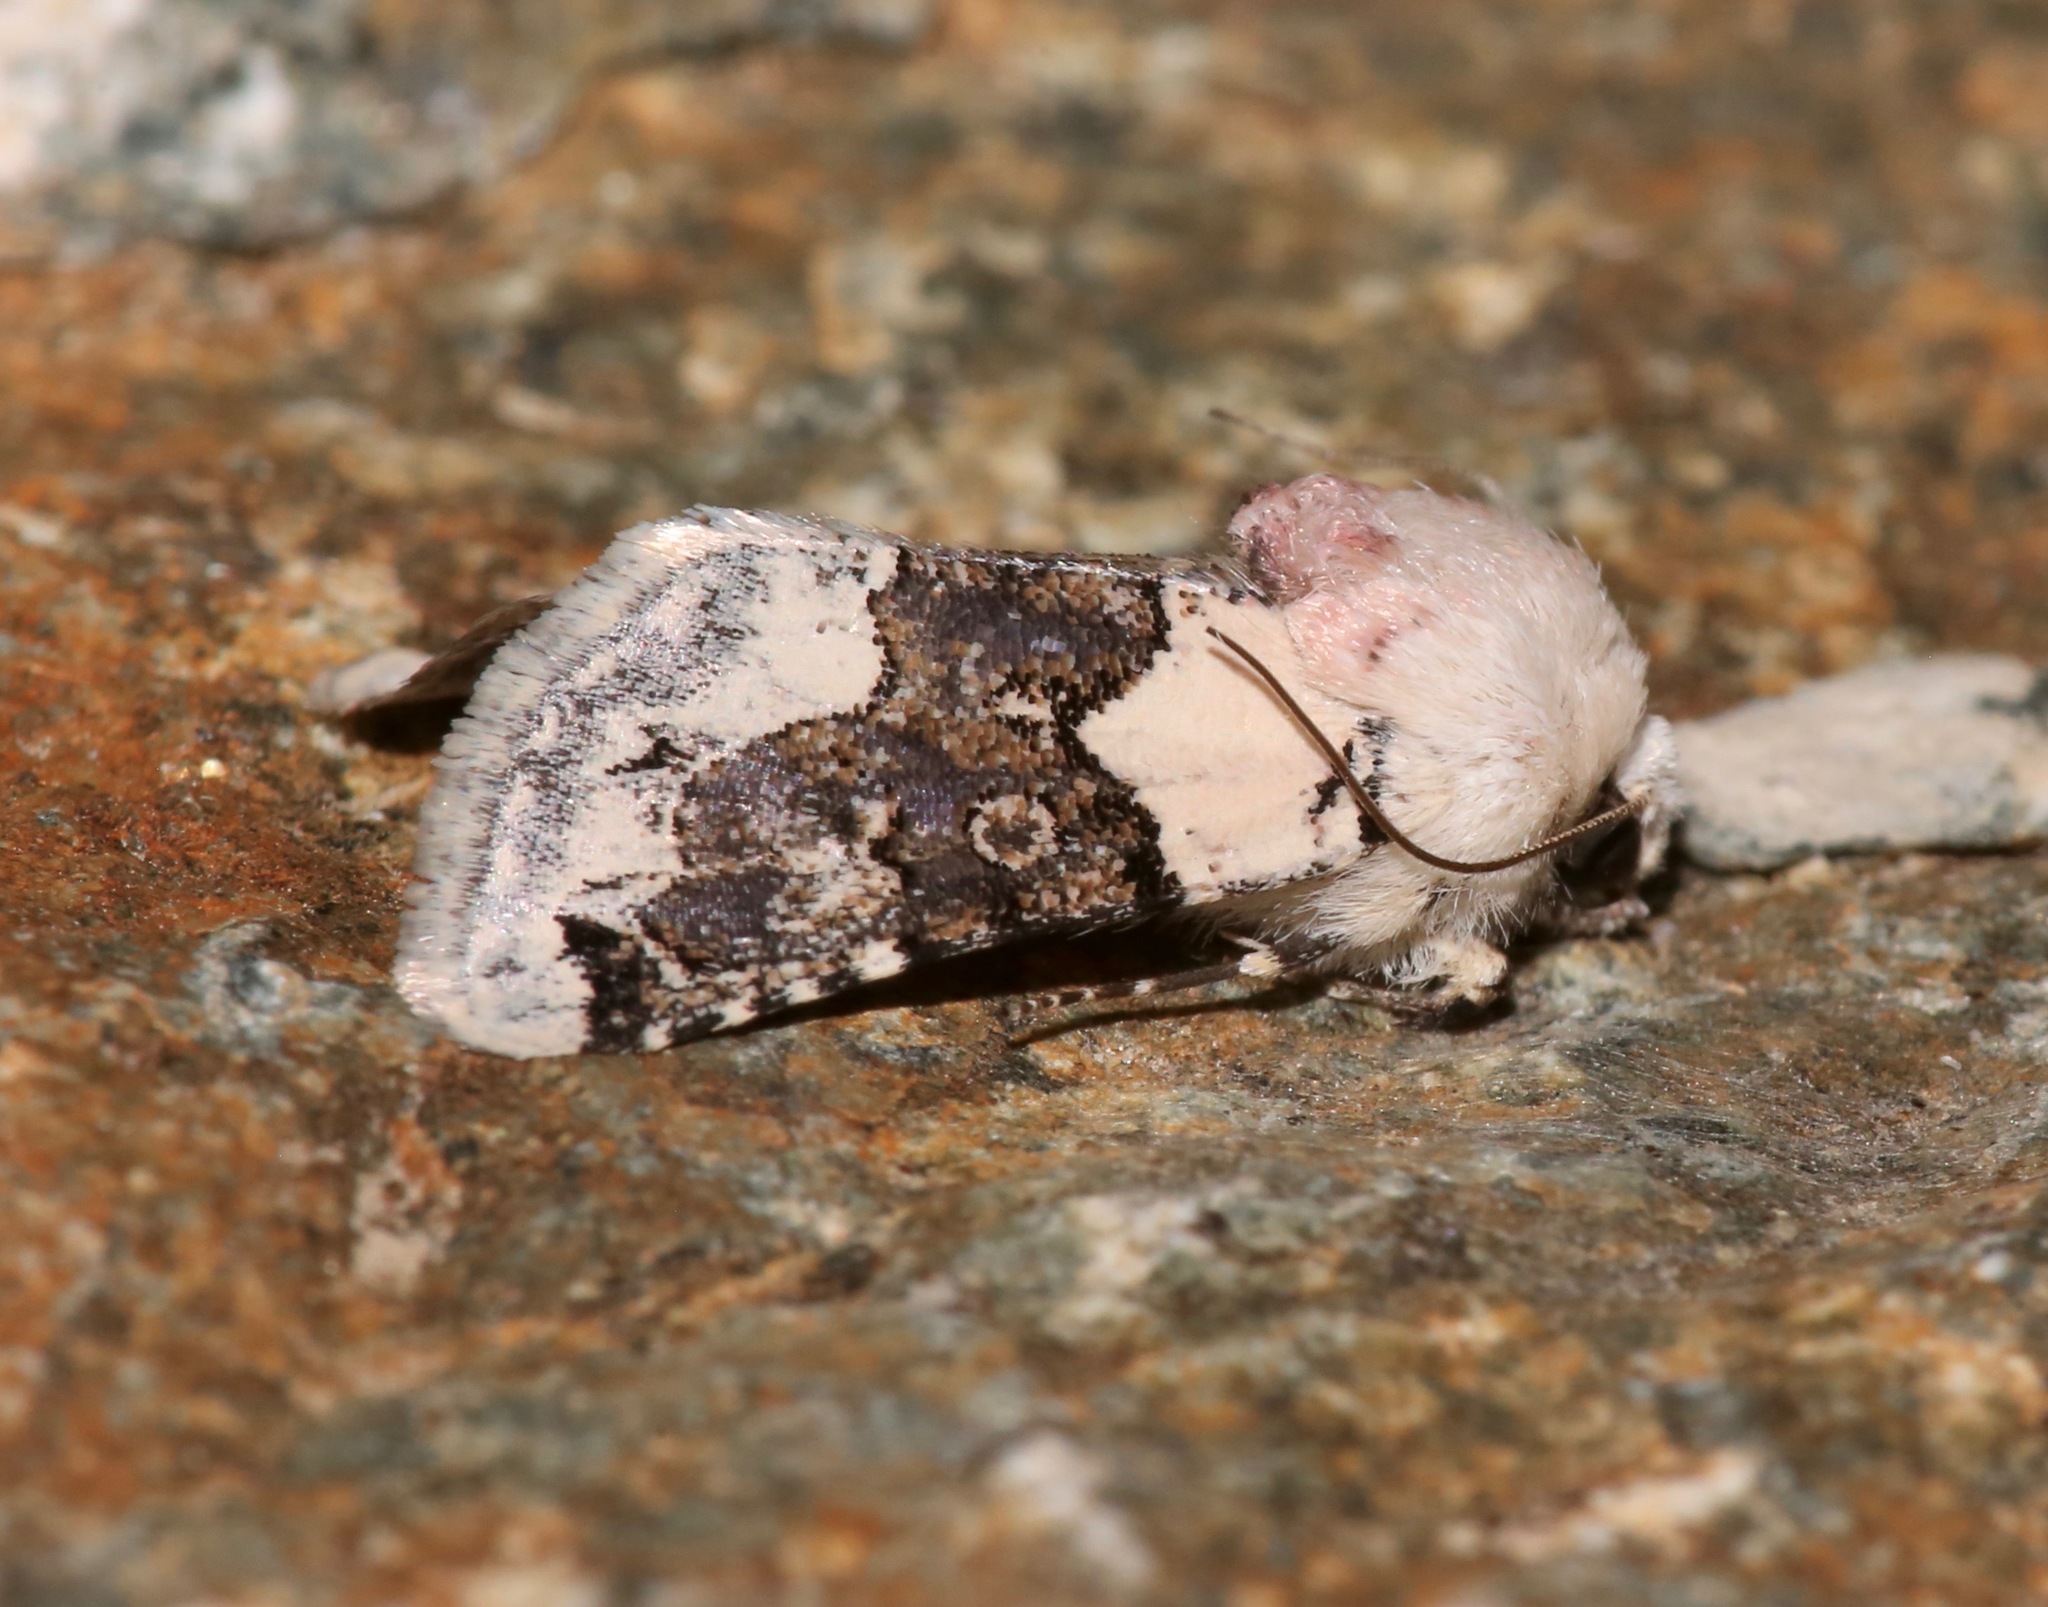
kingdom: Animalia
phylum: Arthropoda
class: Insecta
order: Lepidoptera
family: Noctuidae
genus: Triocnemis
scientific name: Triocnemis saporis
